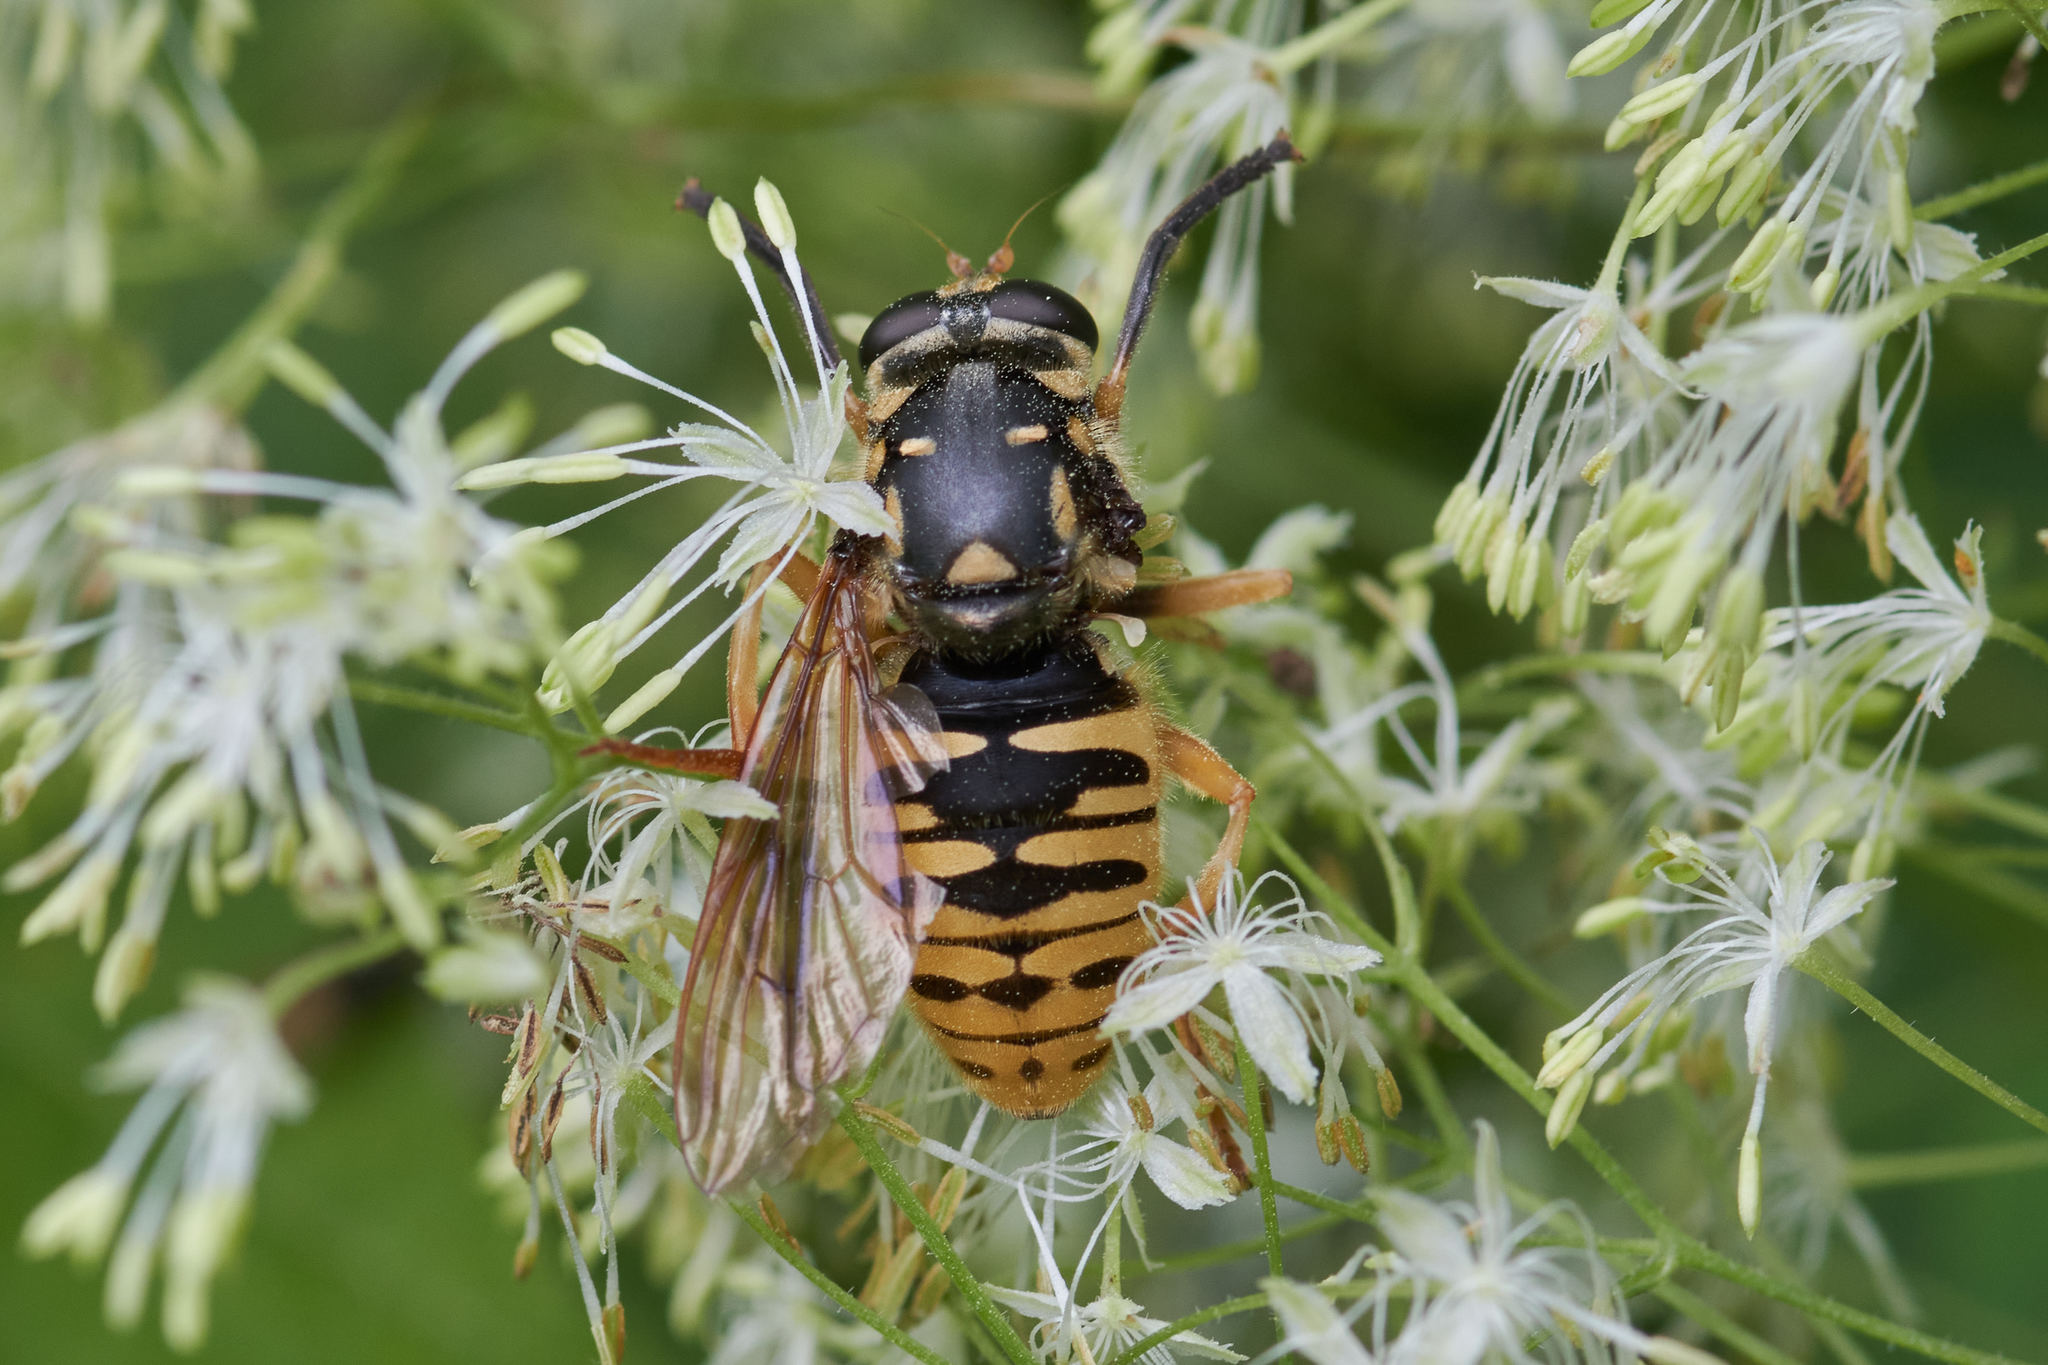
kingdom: Animalia
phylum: Arthropoda
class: Insecta
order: Diptera
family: Syrphidae
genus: Temnostoma
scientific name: Temnostoma alternans
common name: Wasp-like falsehorn
